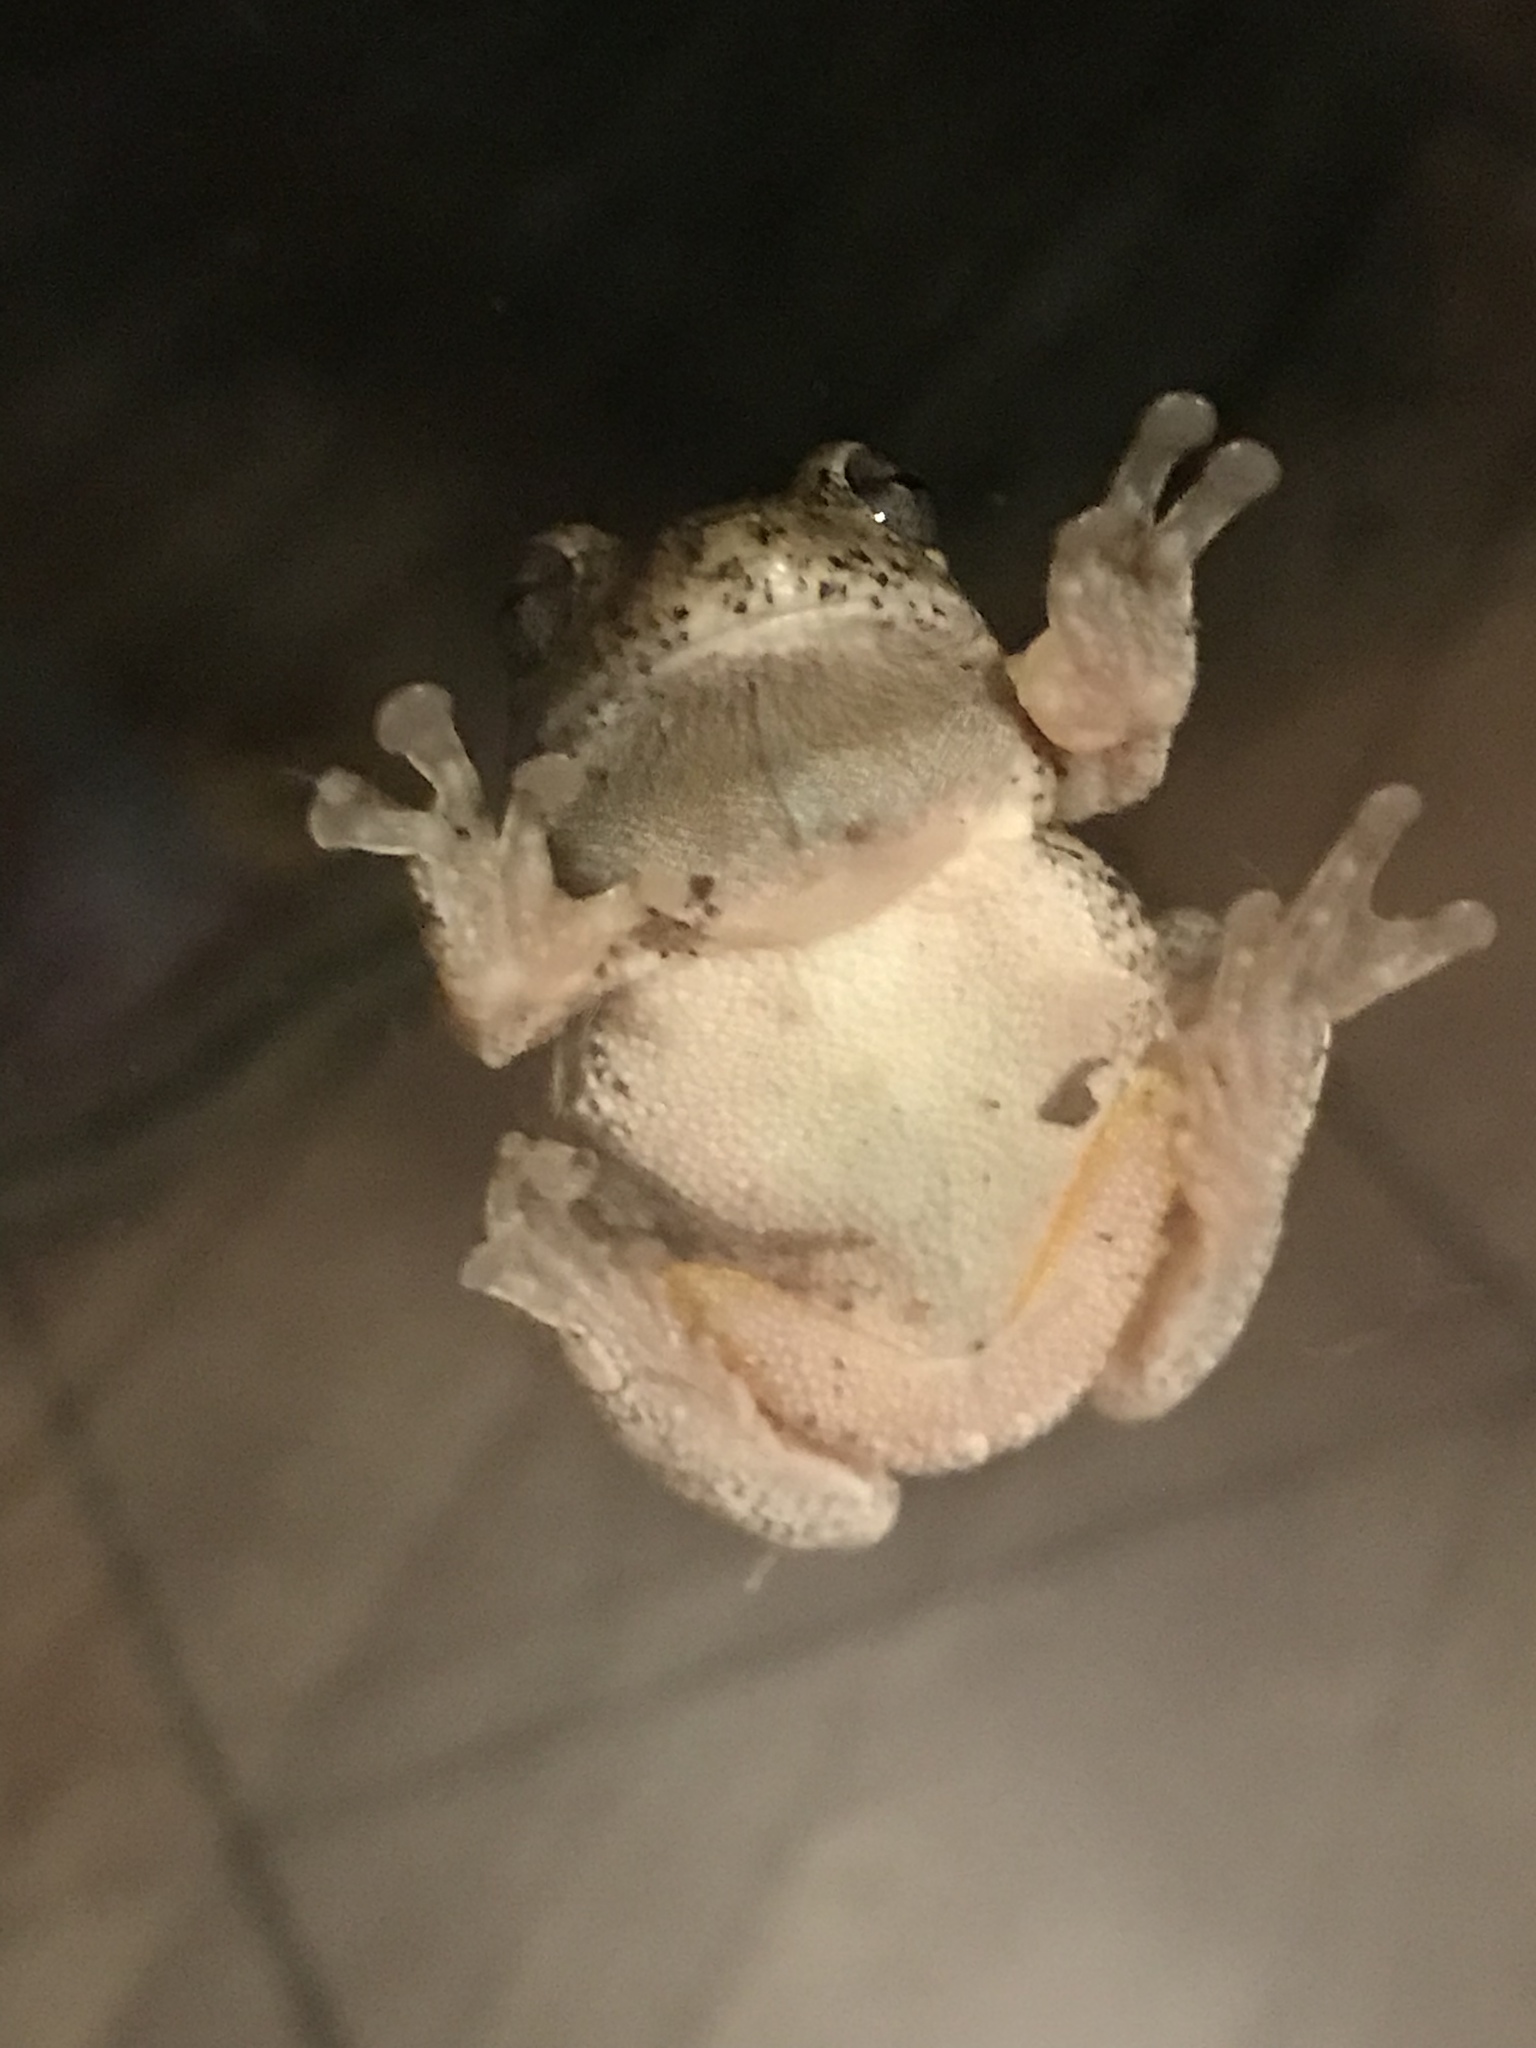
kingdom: Animalia
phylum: Chordata
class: Amphibia
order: Anura
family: Hylidae
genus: Hyla
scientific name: Hyla
